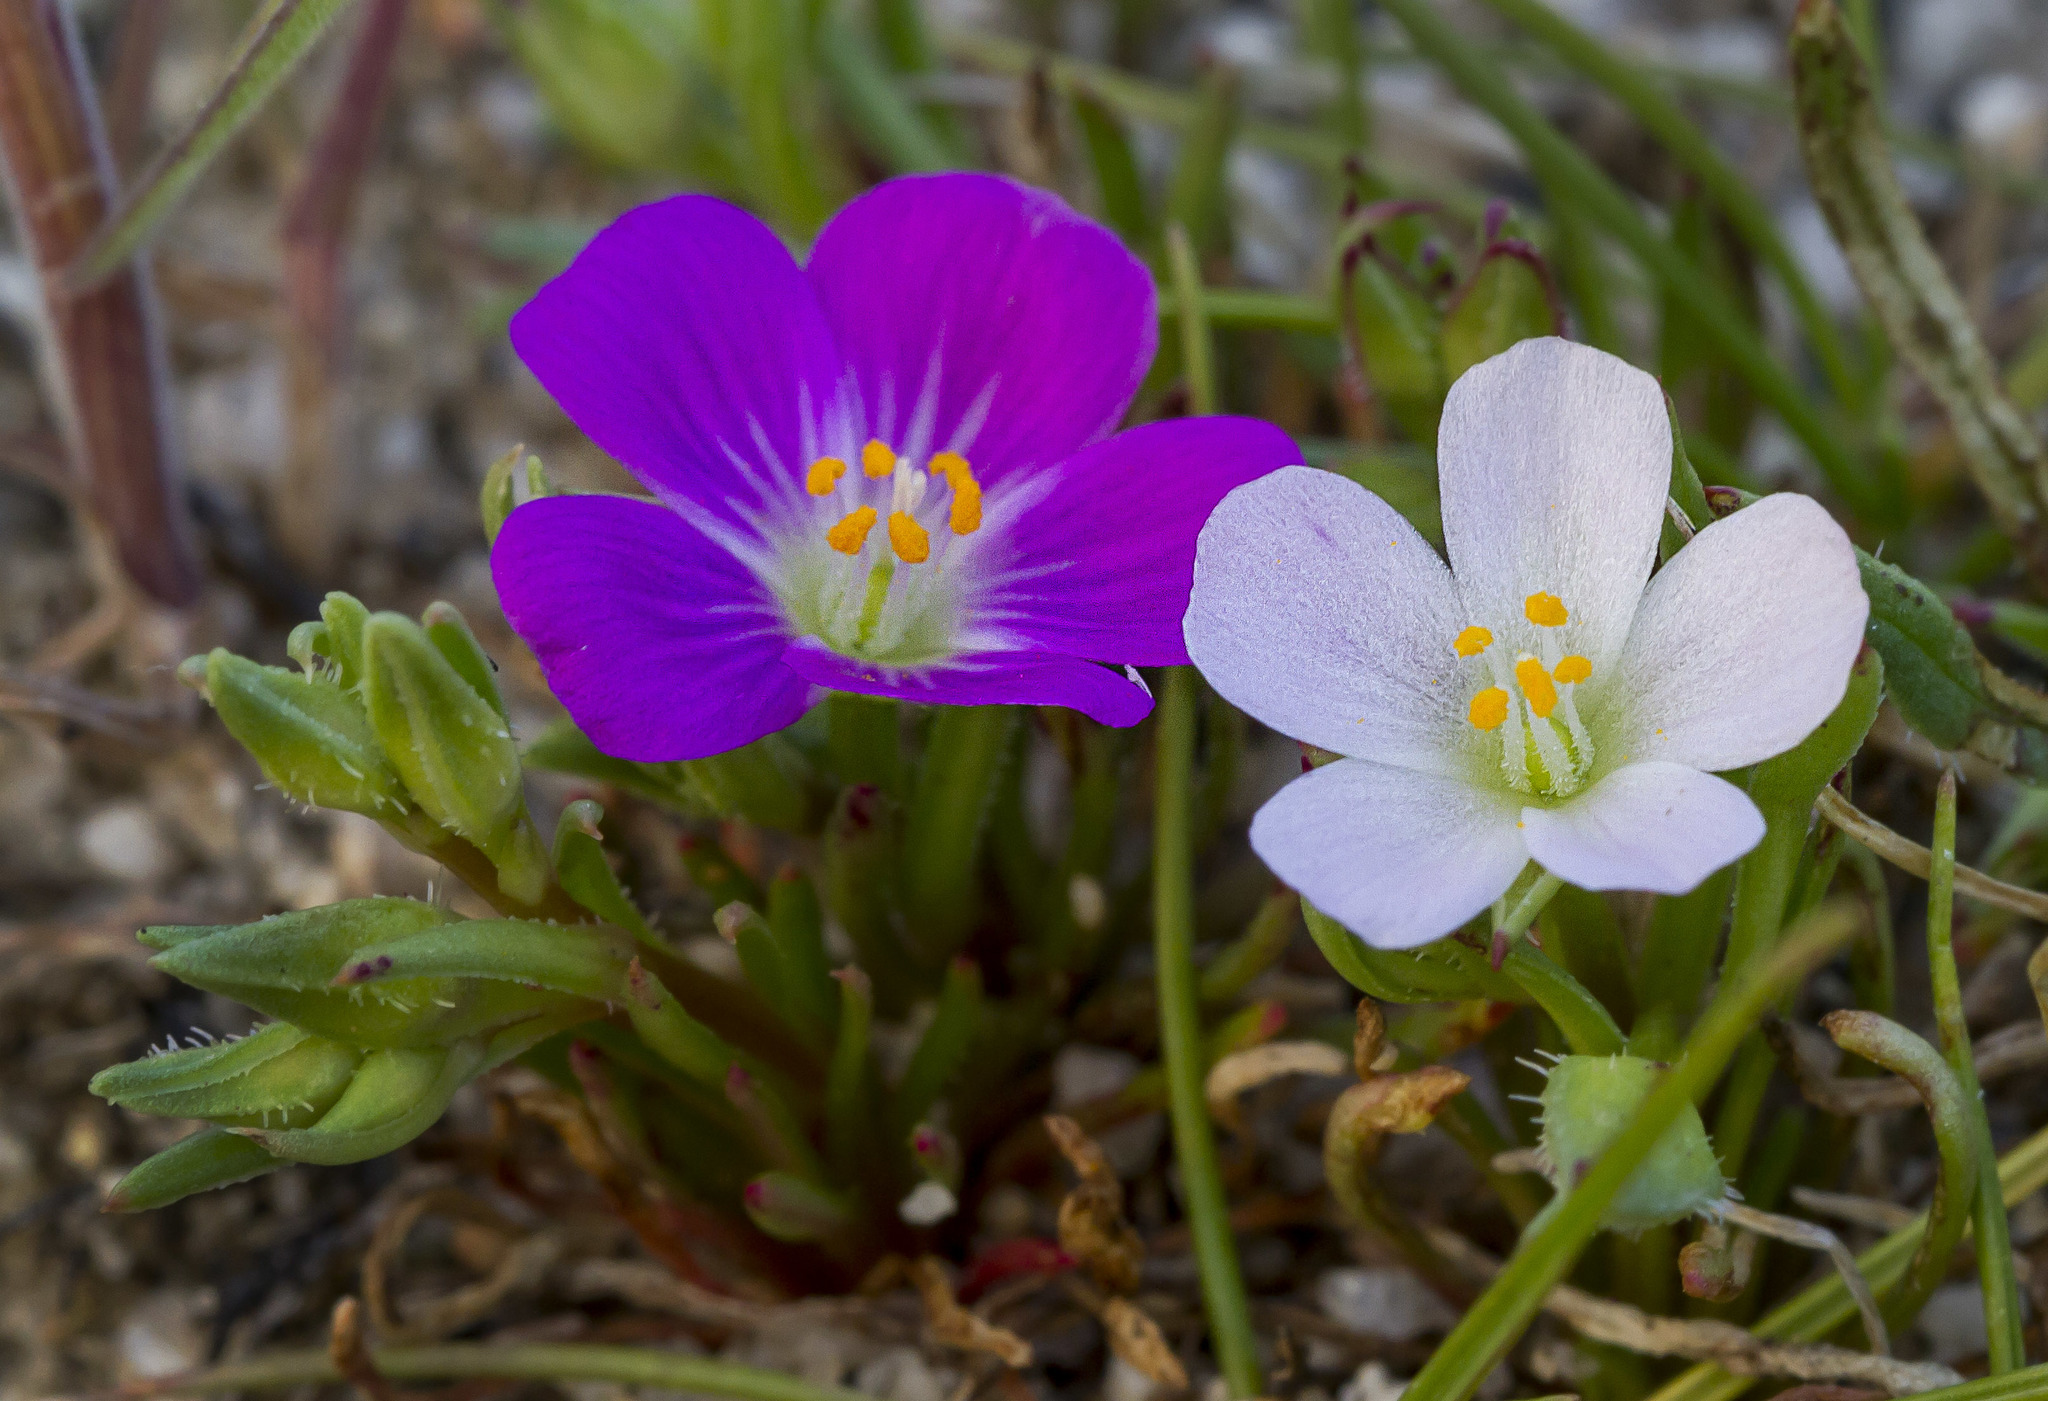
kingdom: Plantae
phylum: Tracheophyta
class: Magnoliopsida
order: Caryophyllales
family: Montiaceae
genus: Calandrinia
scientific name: Calandrinia menziesii
